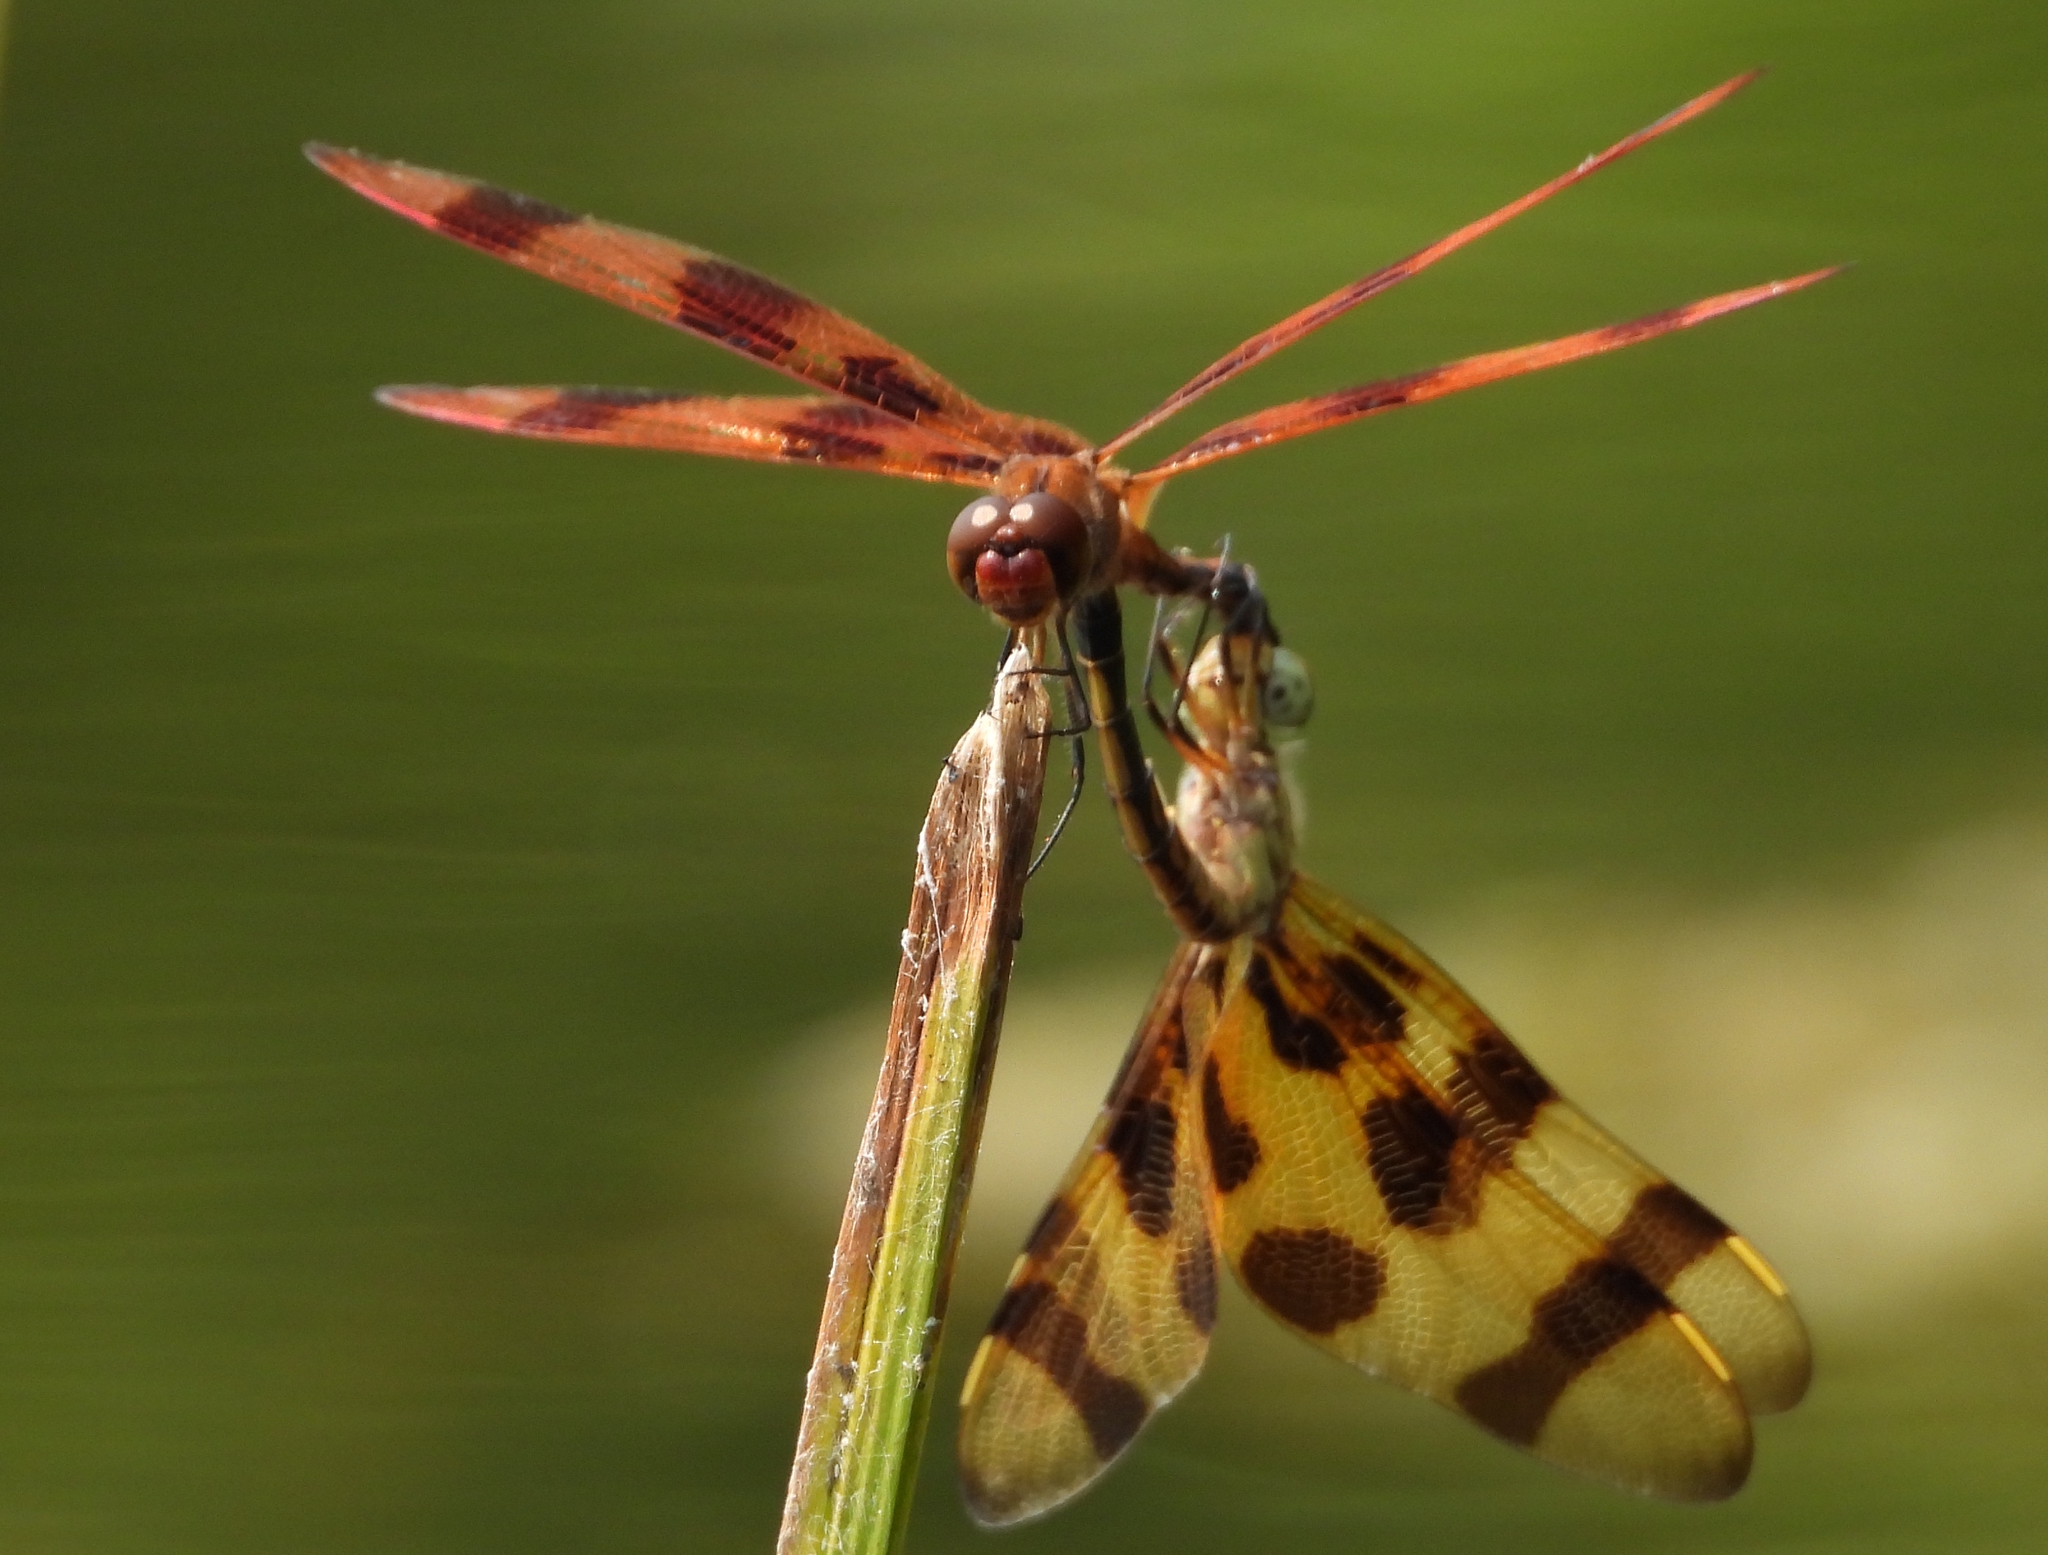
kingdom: Animalia
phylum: Arthropoda
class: Insecta
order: Odonata
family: Libellulidae
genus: Celithemis
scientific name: Celithemis eponina
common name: Halloween pennant
